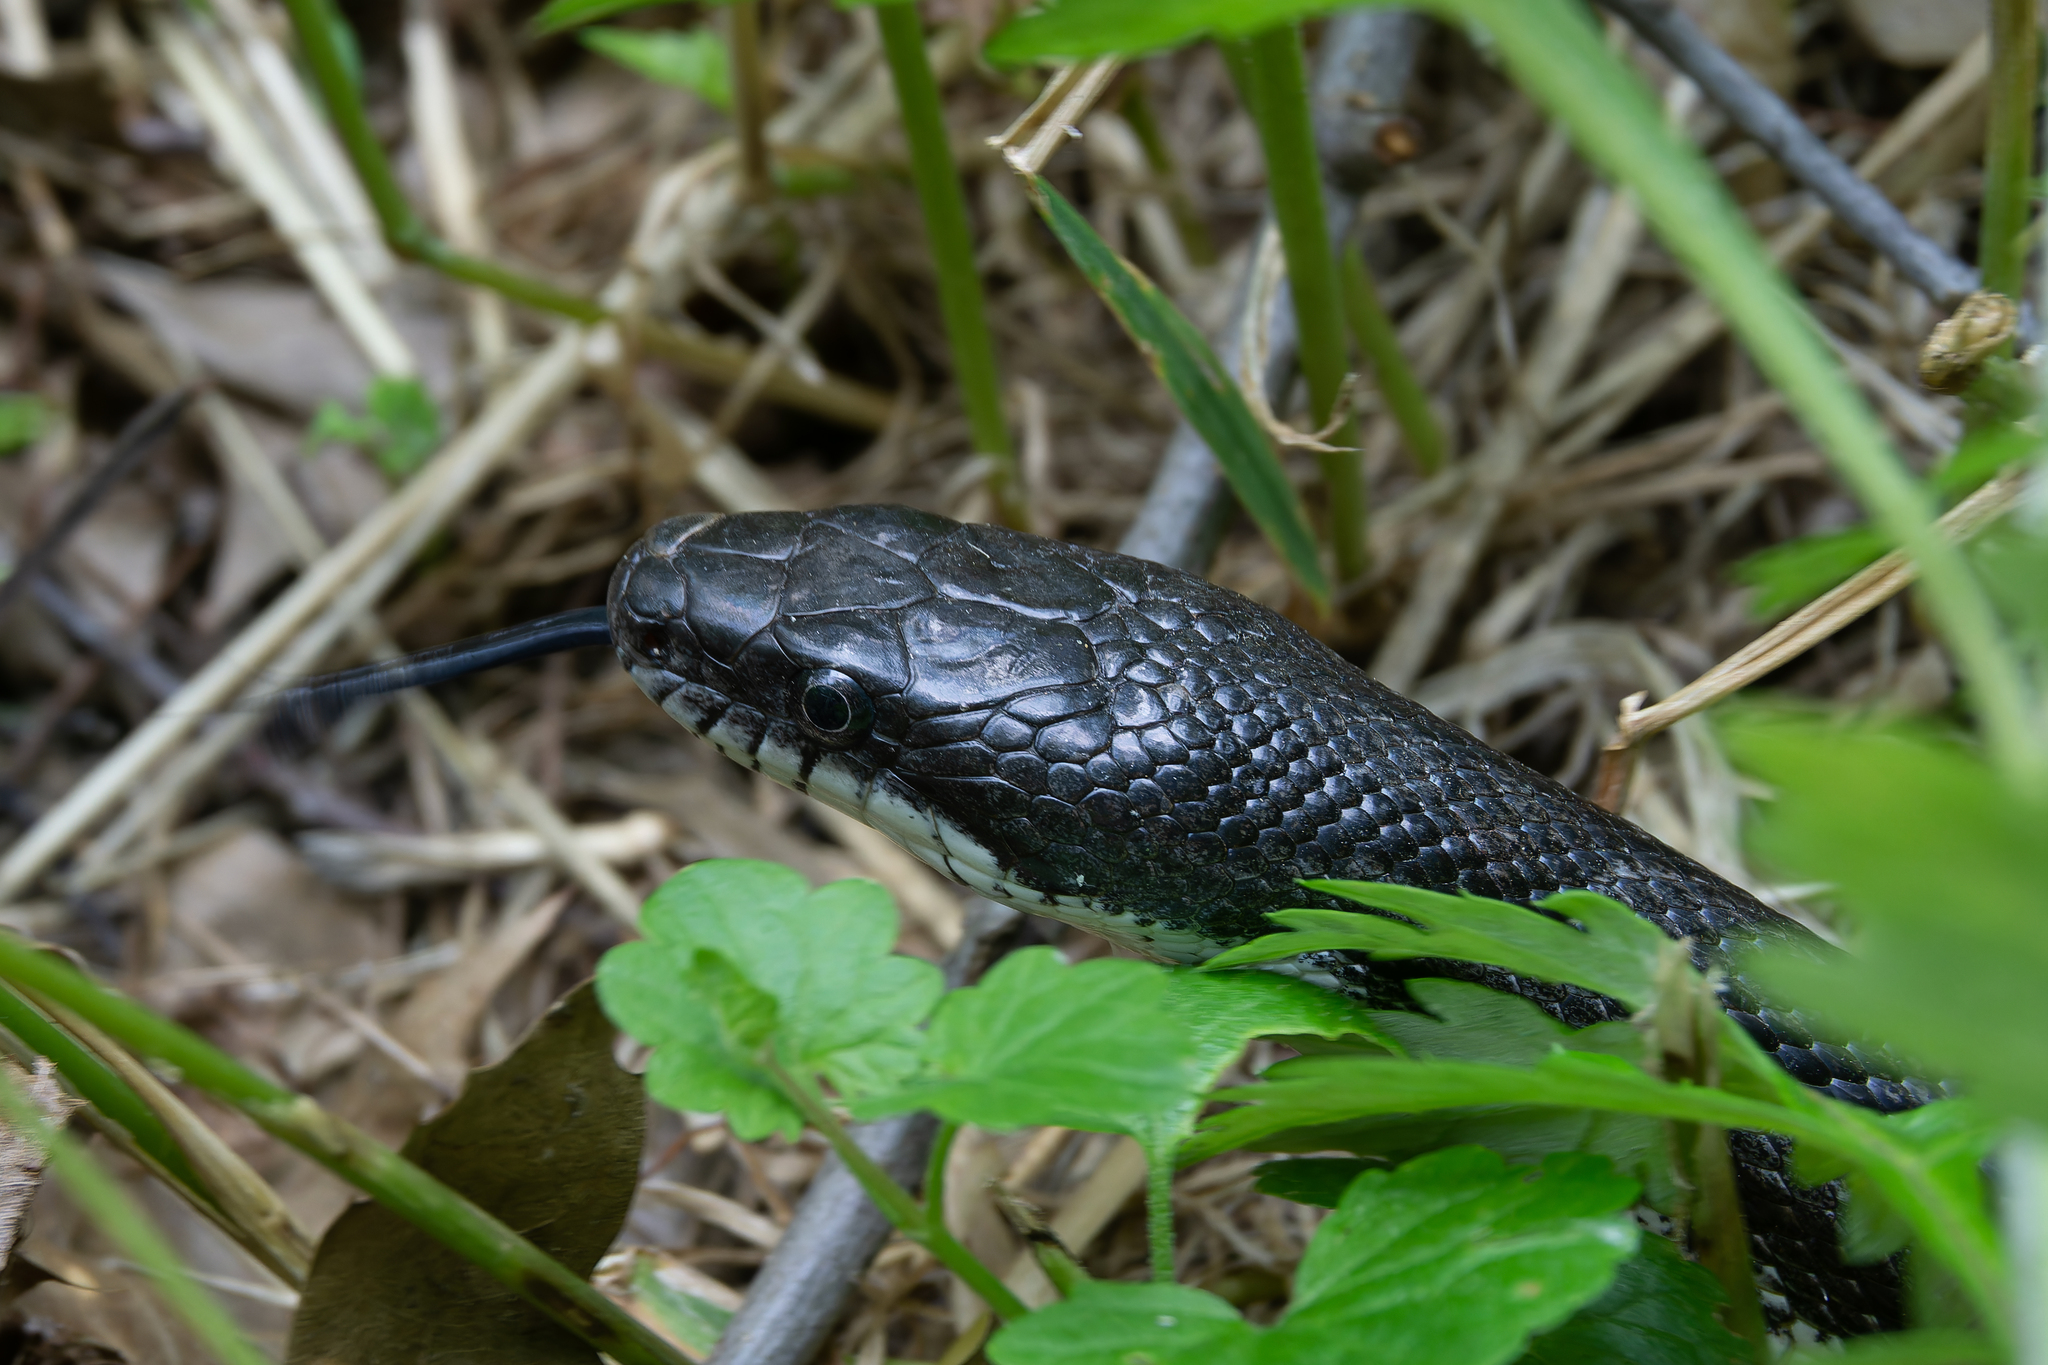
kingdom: Animalia
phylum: Chordata
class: Squamata
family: Colubridae
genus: Pantherophis
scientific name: Pantherophis
